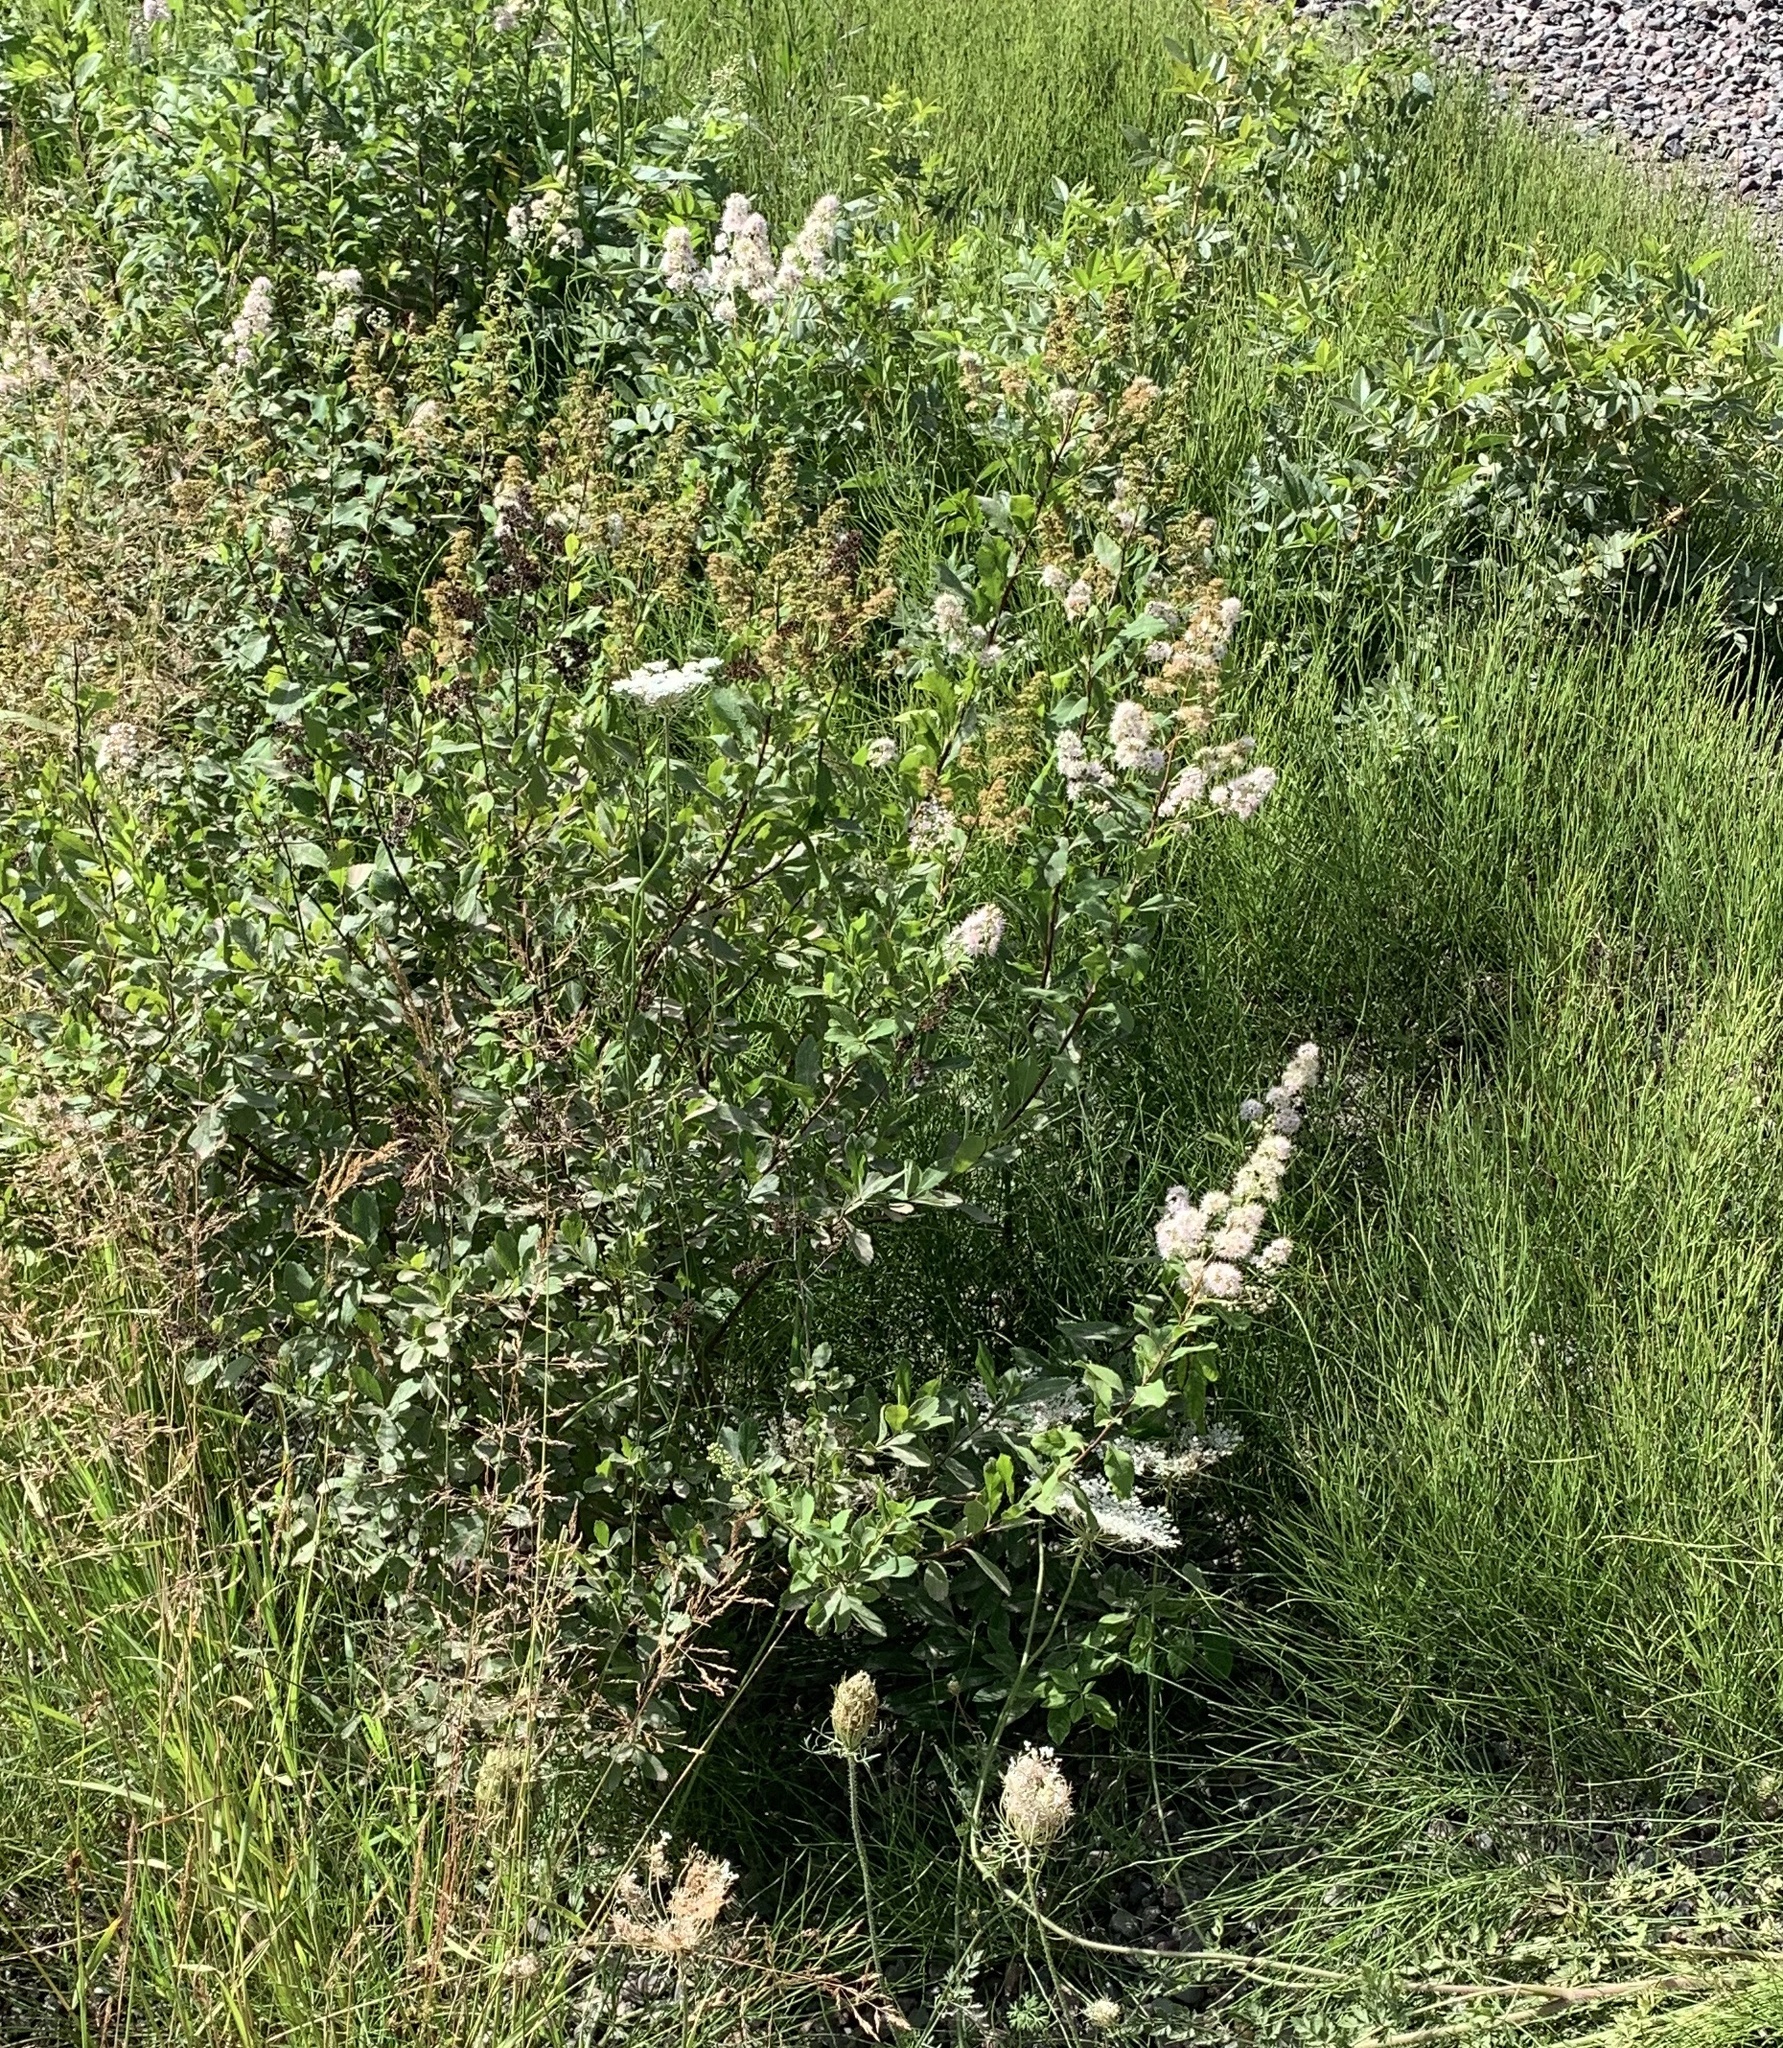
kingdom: Plantae
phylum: Tracheophyta
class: Magnoliopsida
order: Rosales
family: Rosaceae
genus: Spiraea
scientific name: Spiraea alba
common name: Pale bridewort
